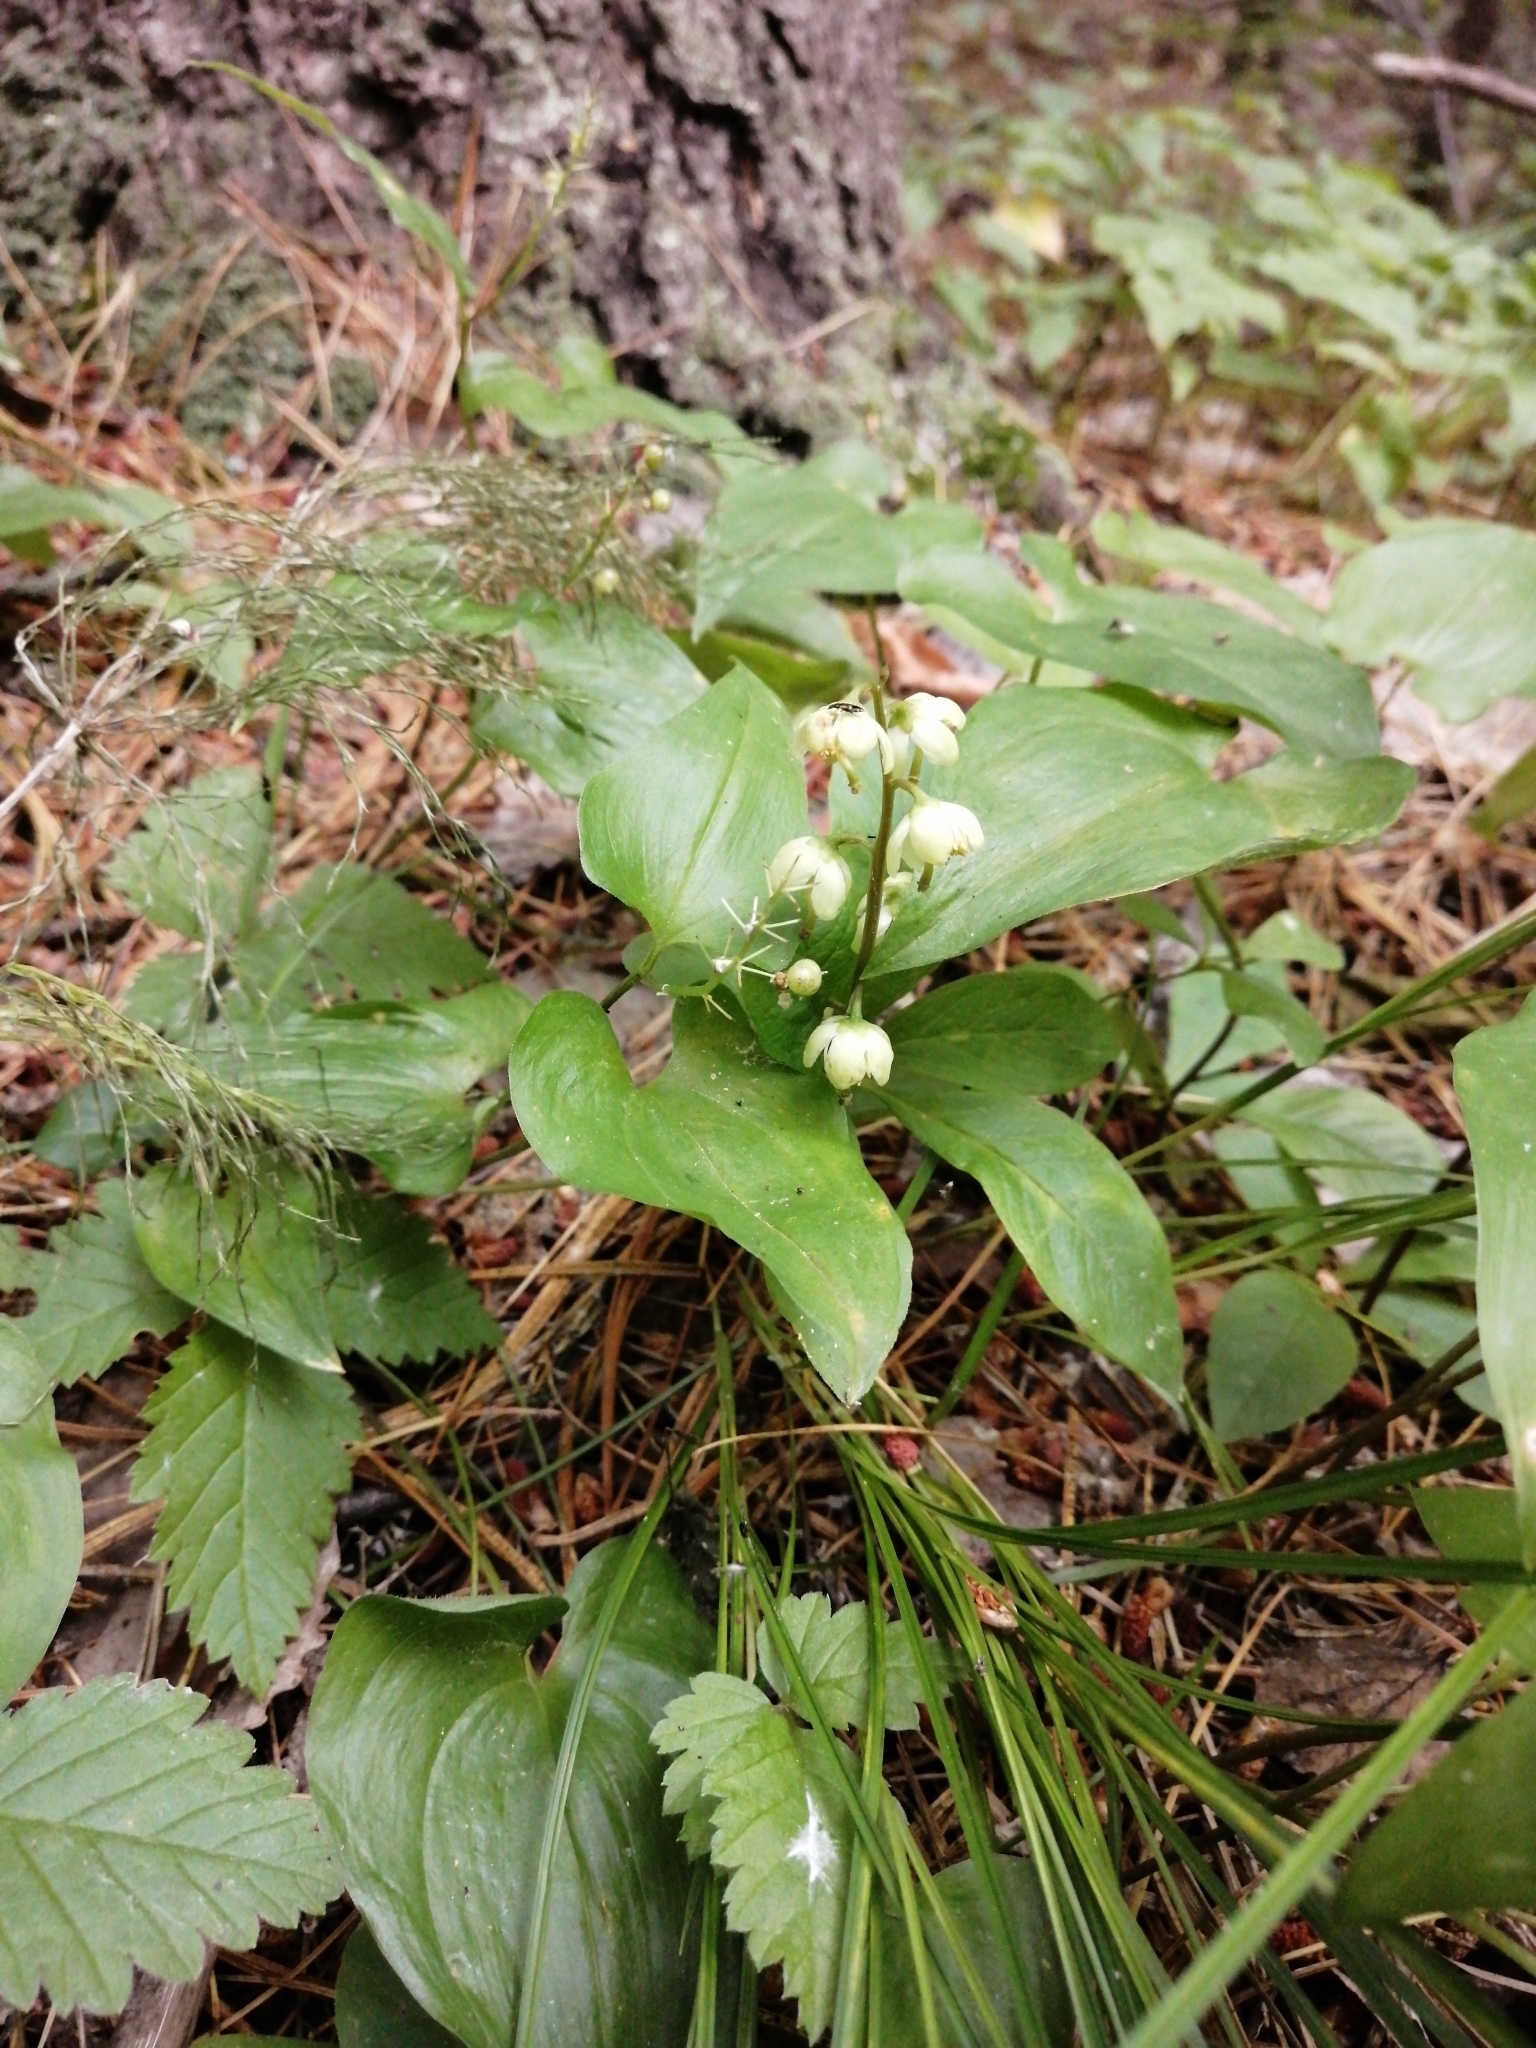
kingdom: Plantae
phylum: Tracheophyta
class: Magnoliopsida
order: Ericales
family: Ericaceae
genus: Pyrola
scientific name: Pyrola chlorantha
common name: Green wintergreen
